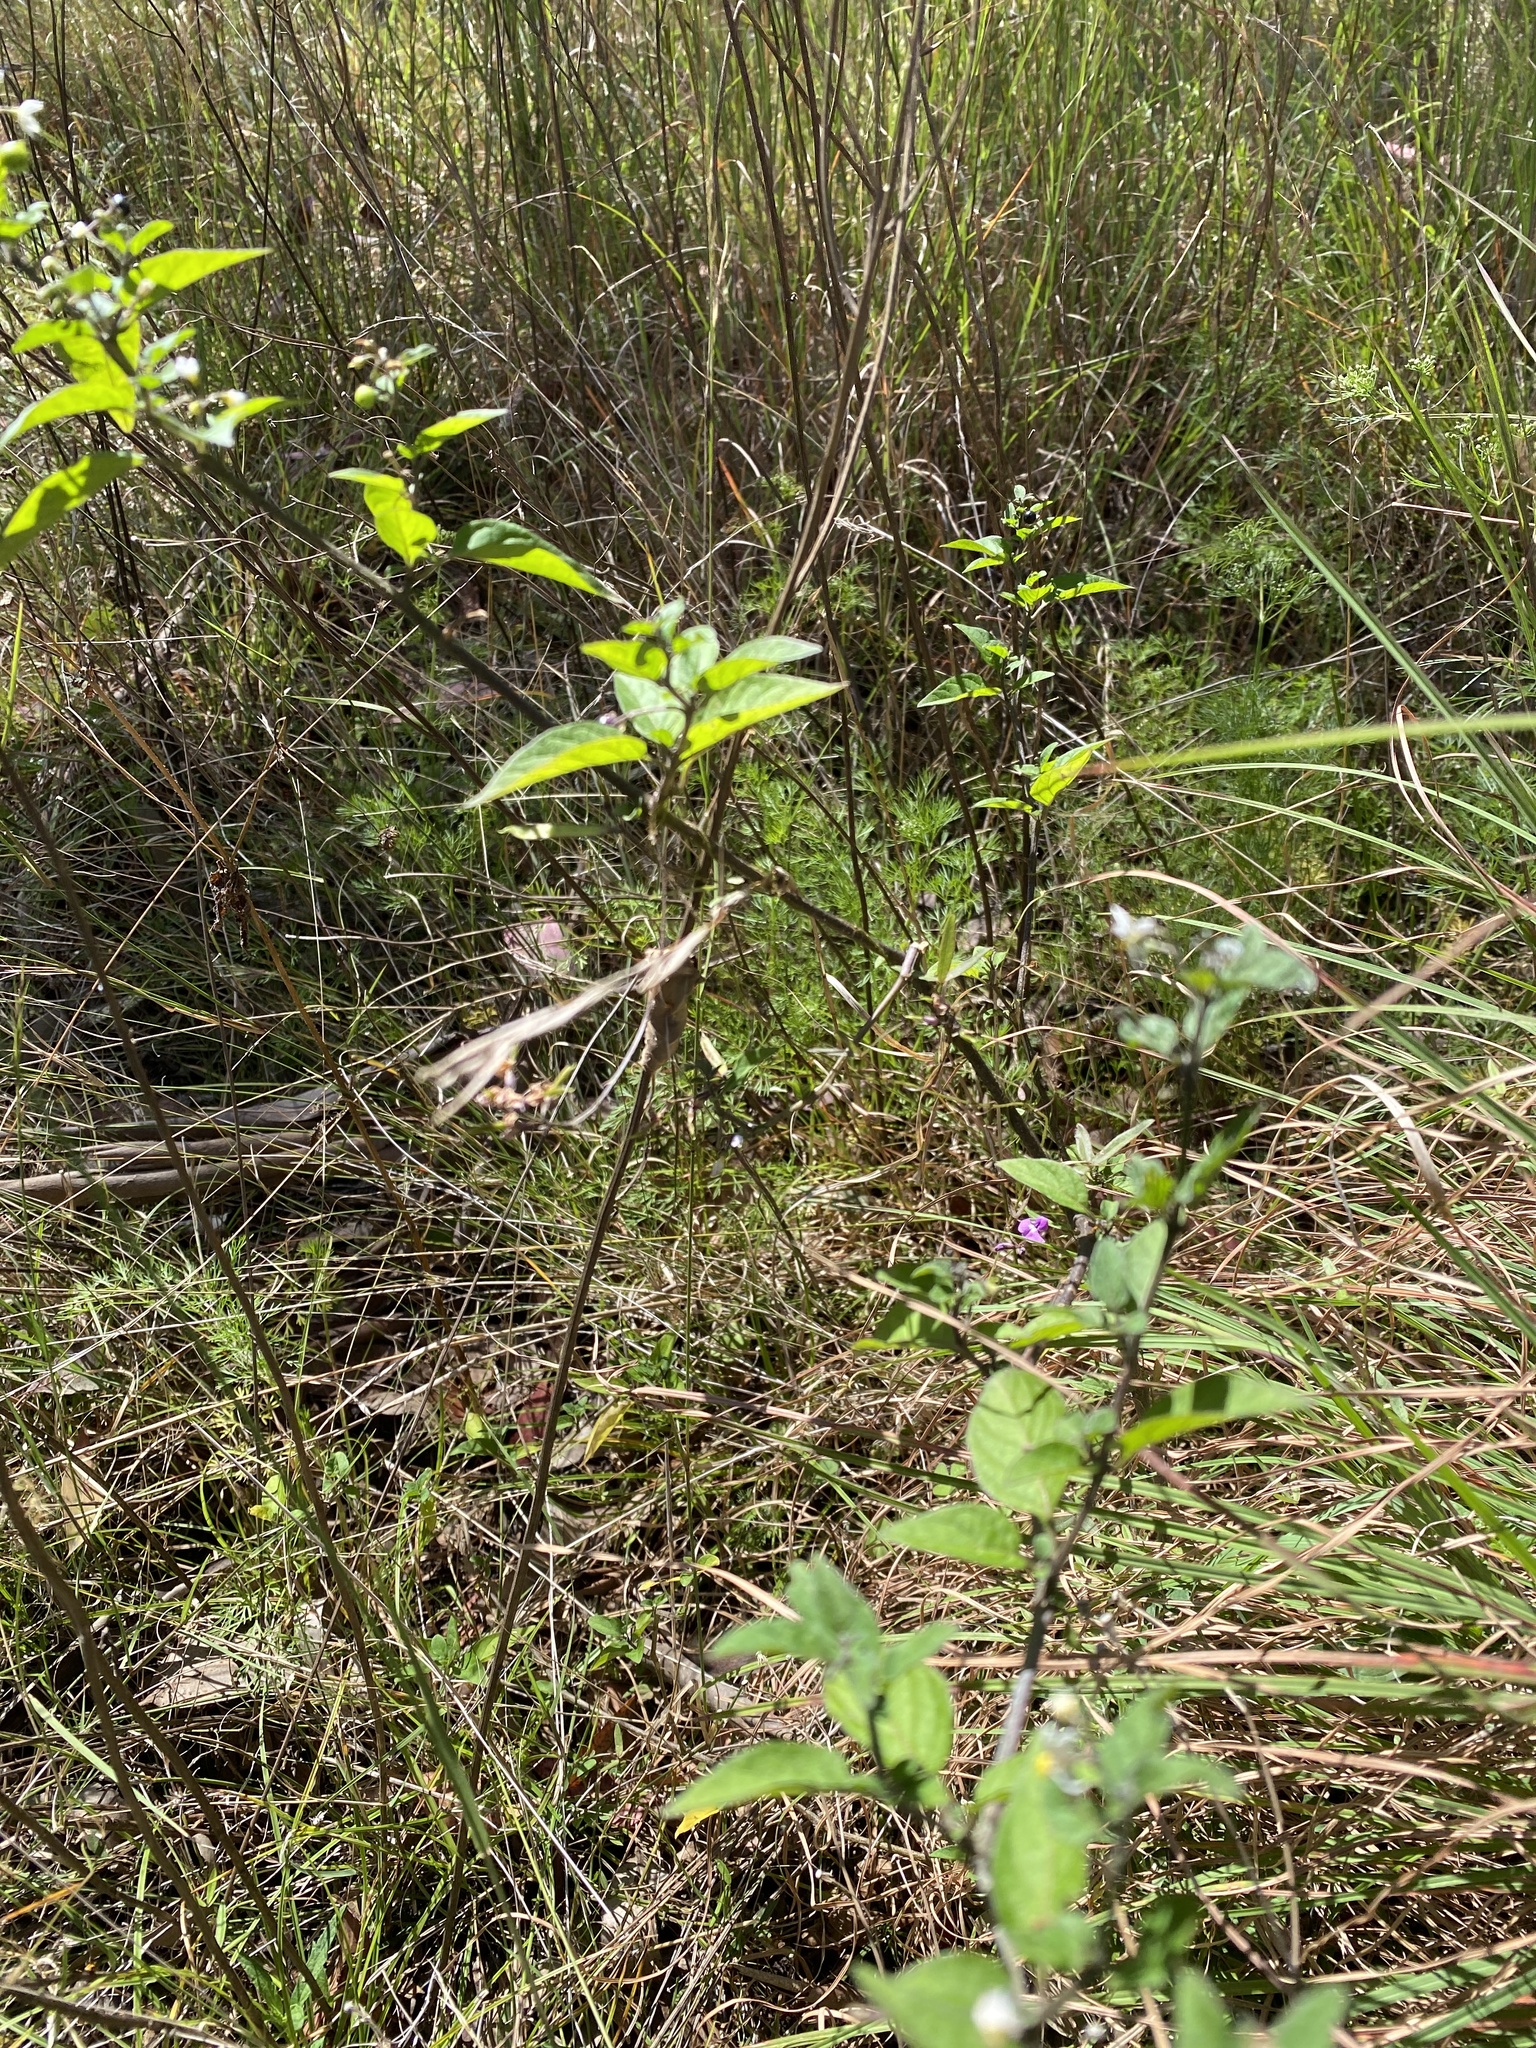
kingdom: Plantae
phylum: Tracheophyta
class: Magnoliopsida
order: Solanales
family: Solanaceae
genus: Solanum
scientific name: Solanum americanum
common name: American black nightshade
